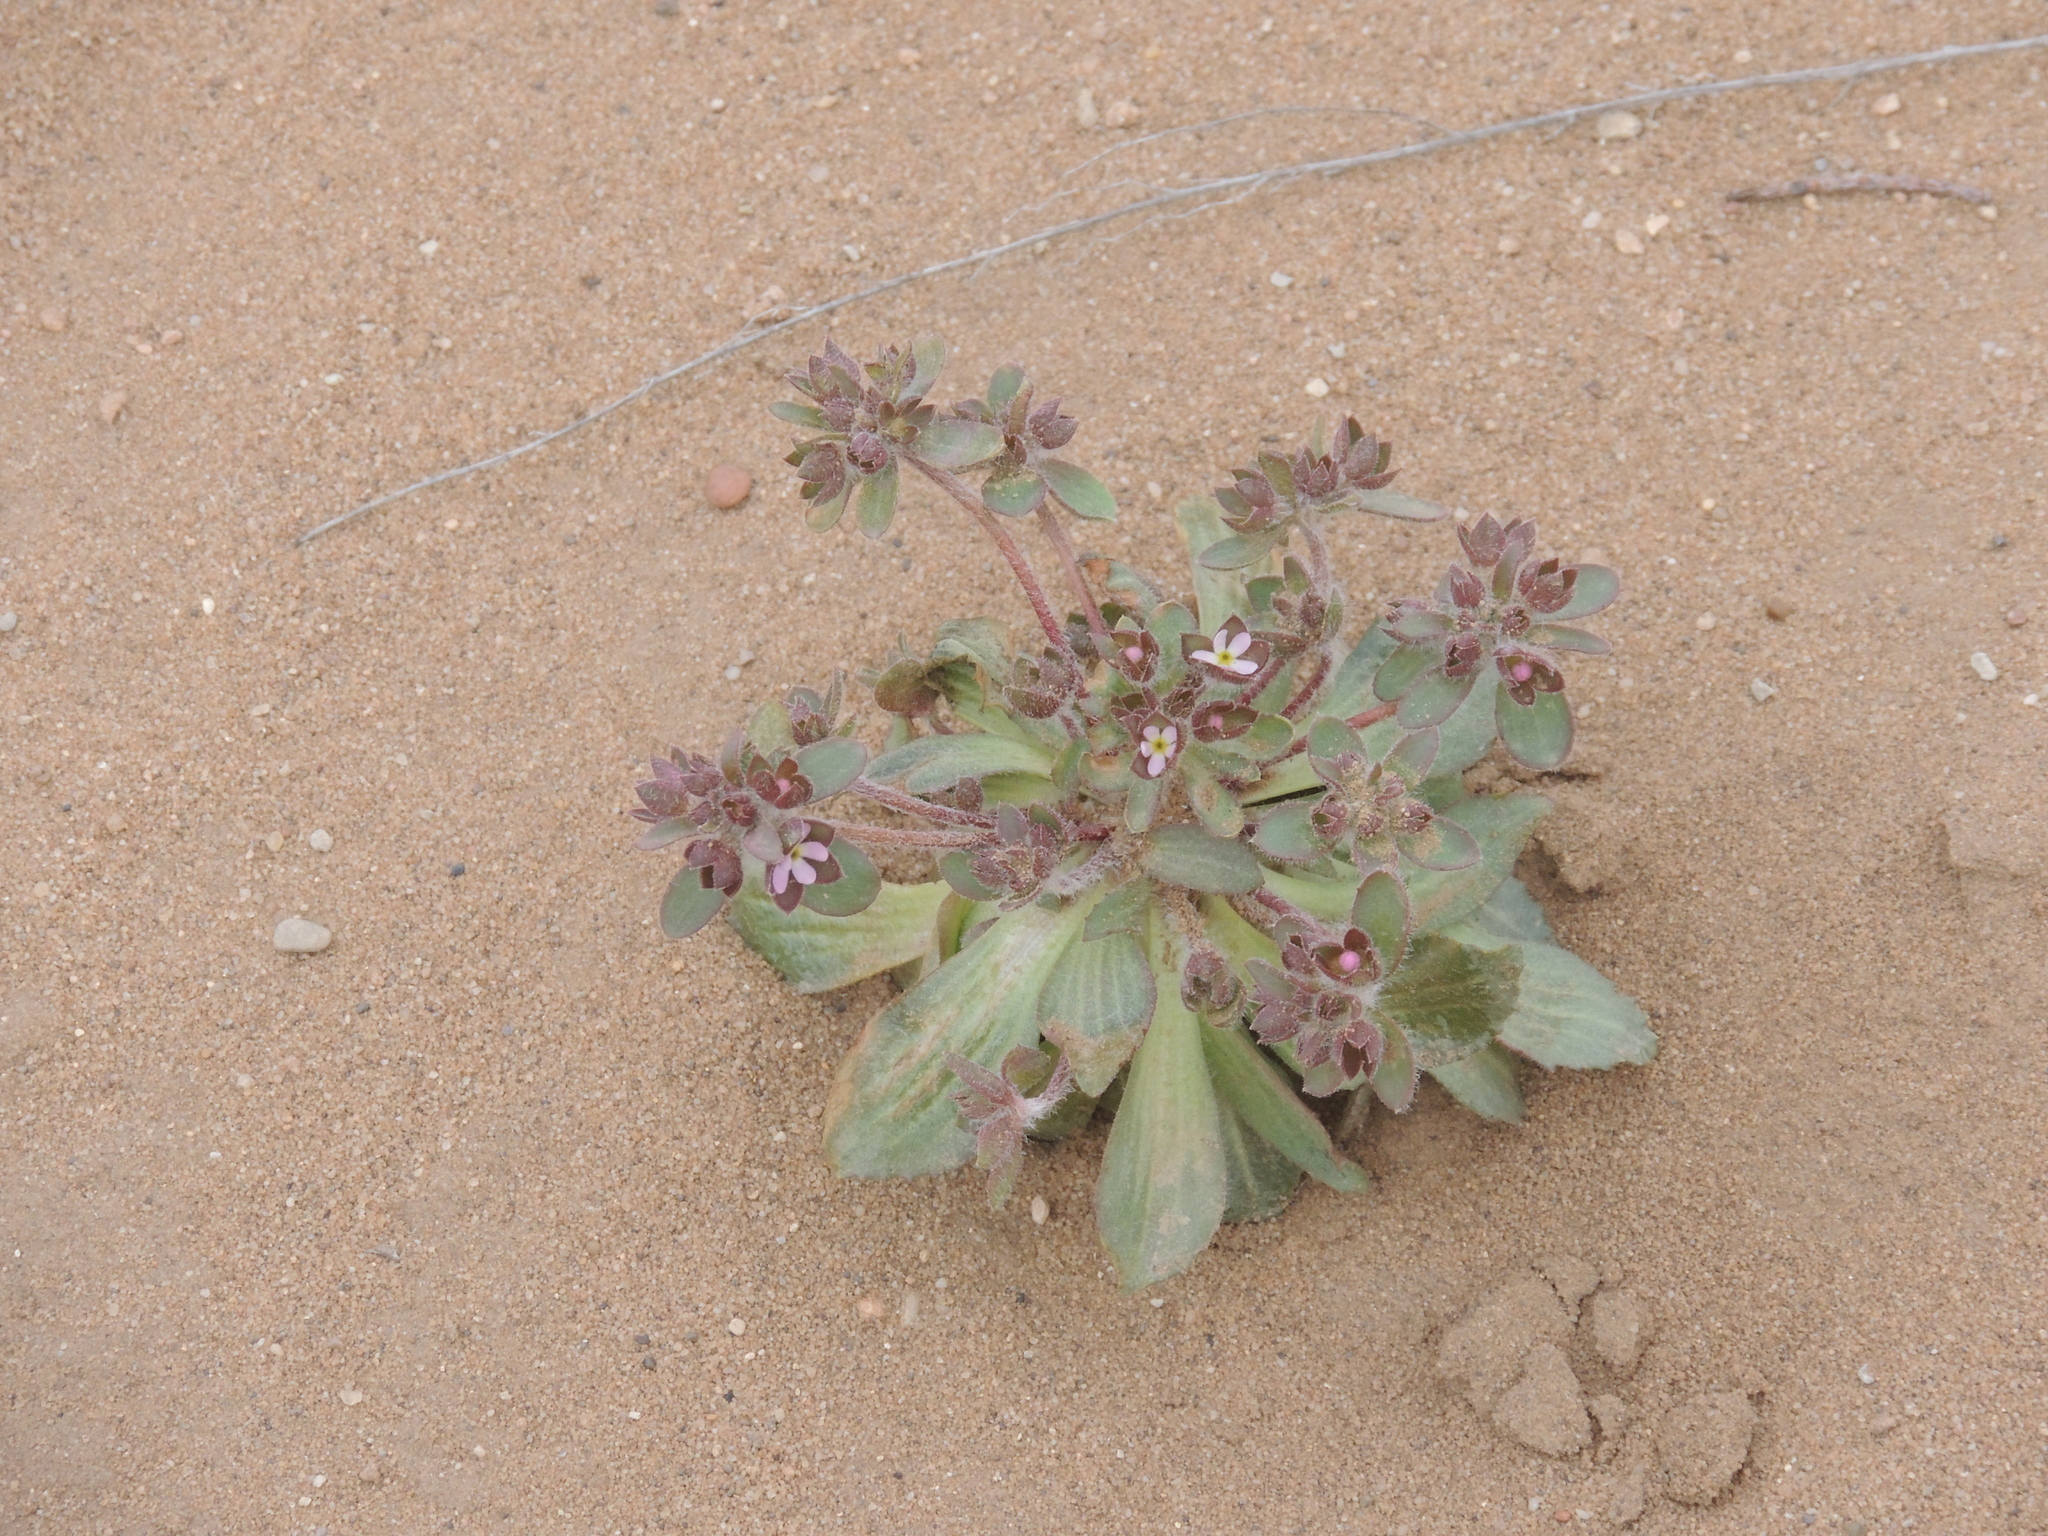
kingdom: Plantae
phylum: Tracheophyta
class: Magnoliopsida
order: Ericales
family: Primulaceae
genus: Androsace
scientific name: Androsace maxima
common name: Annual androsace
